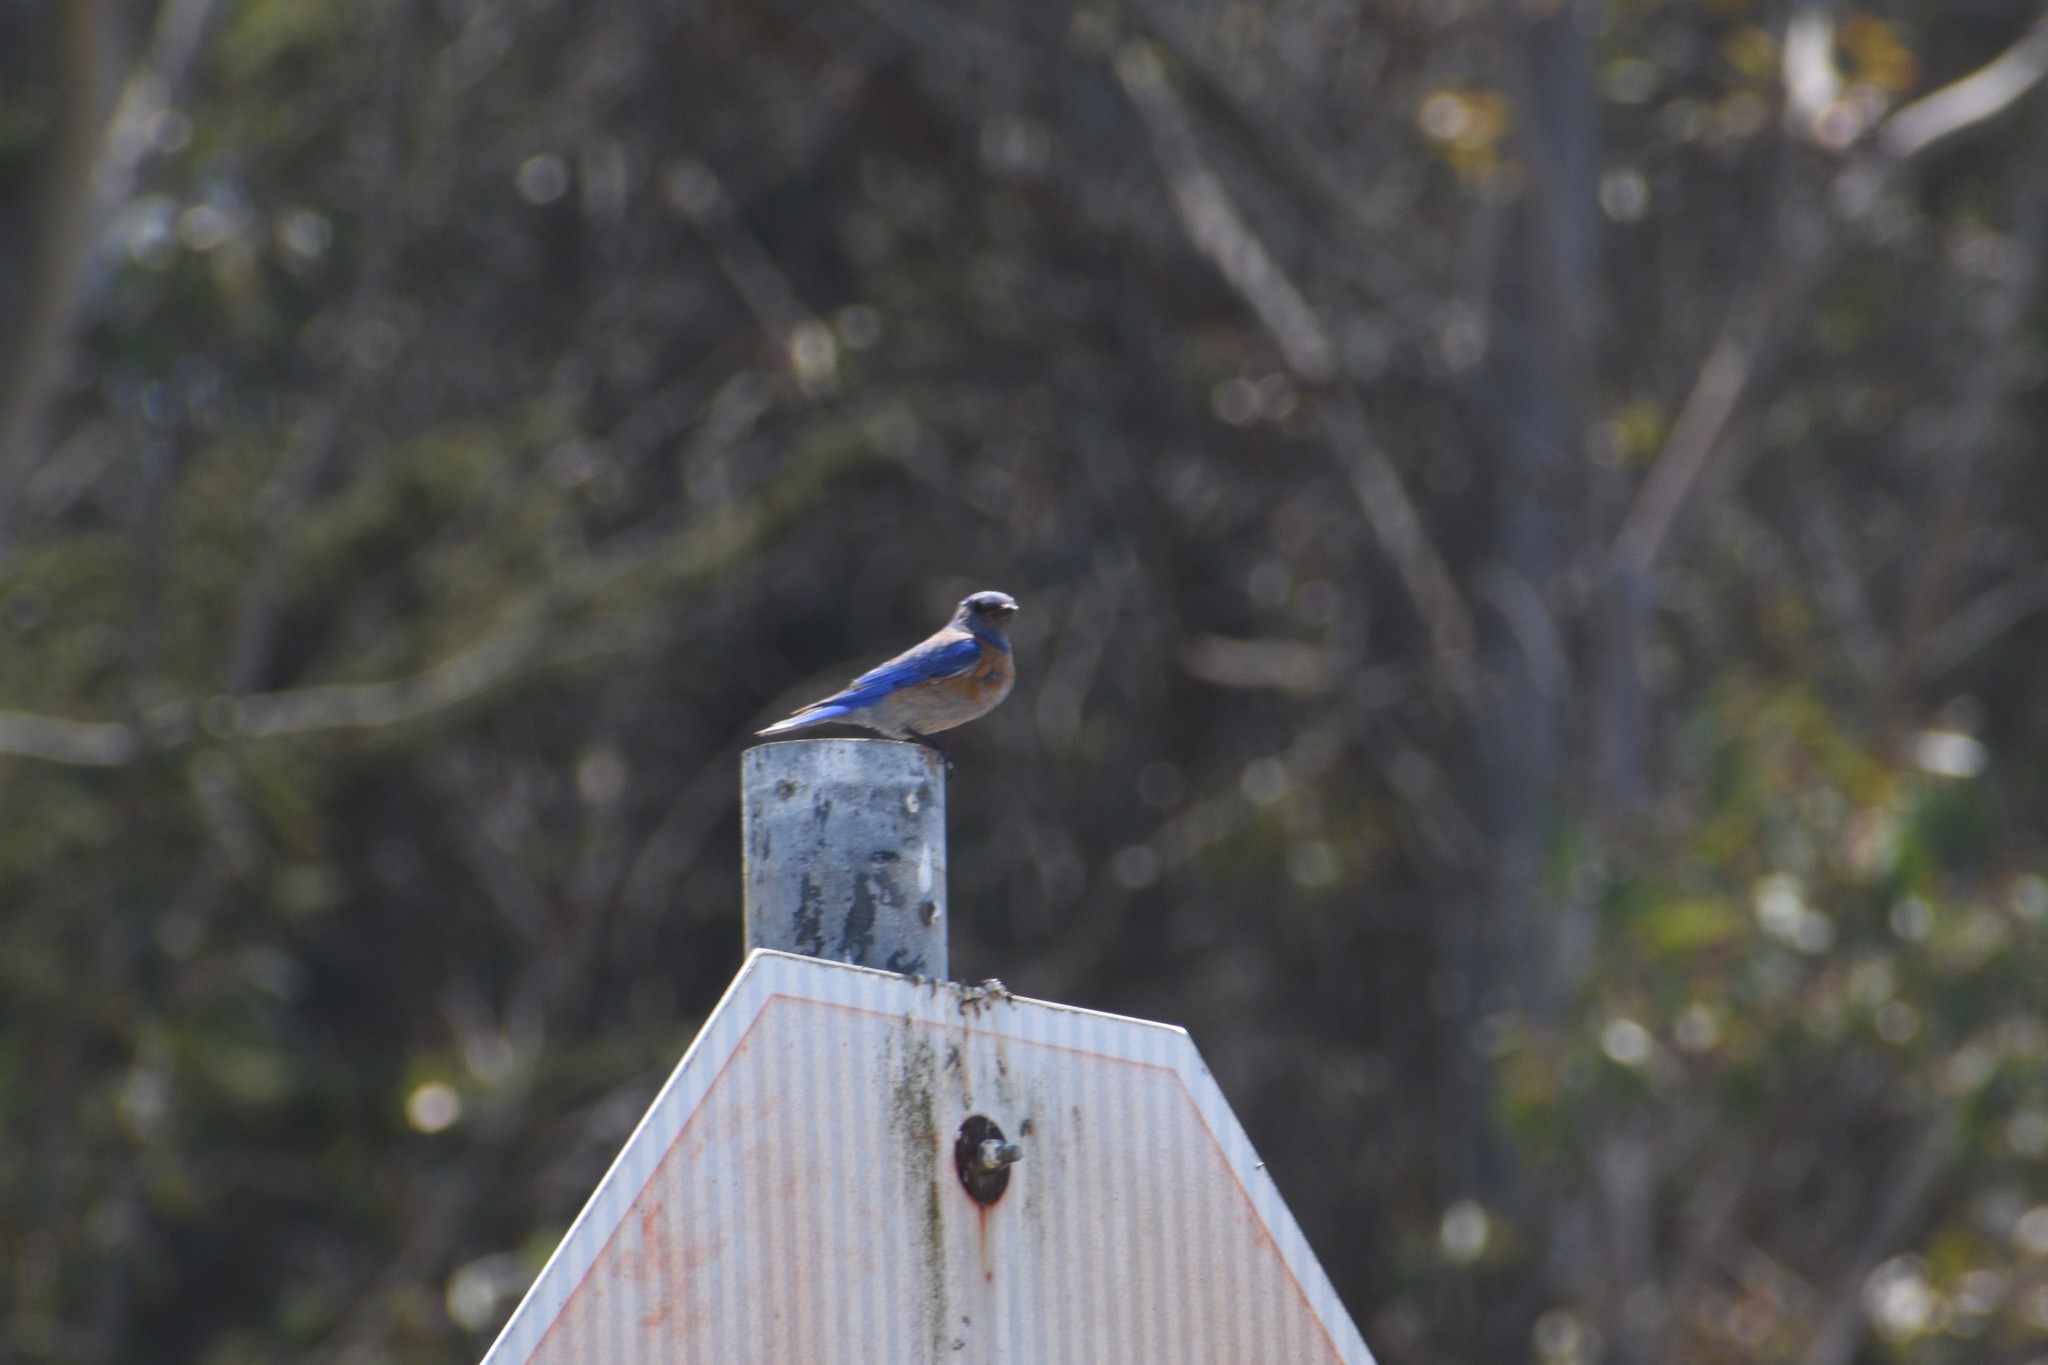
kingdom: Animalia
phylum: Chordata
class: Aves
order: Passeriformes
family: Turdidae
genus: Sialia
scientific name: Sialia mexicana
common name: Western bluebird
